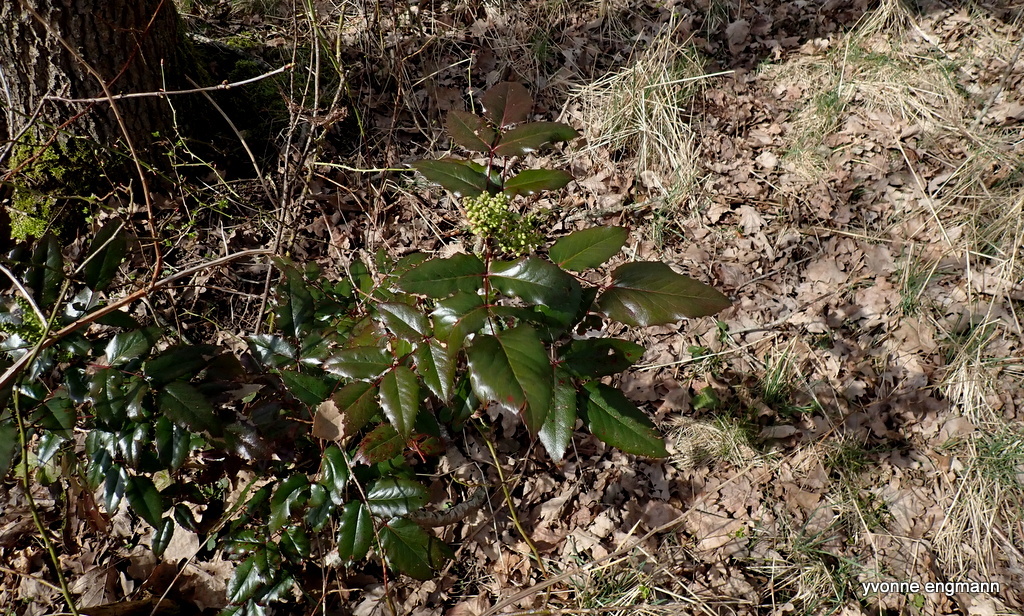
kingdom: Plantae
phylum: Tracheophyta
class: Magnoliopsida
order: Ranunculales
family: Berberidaceae
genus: Mahonia
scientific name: Mahonia aquifolium
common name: Oregon-grape
